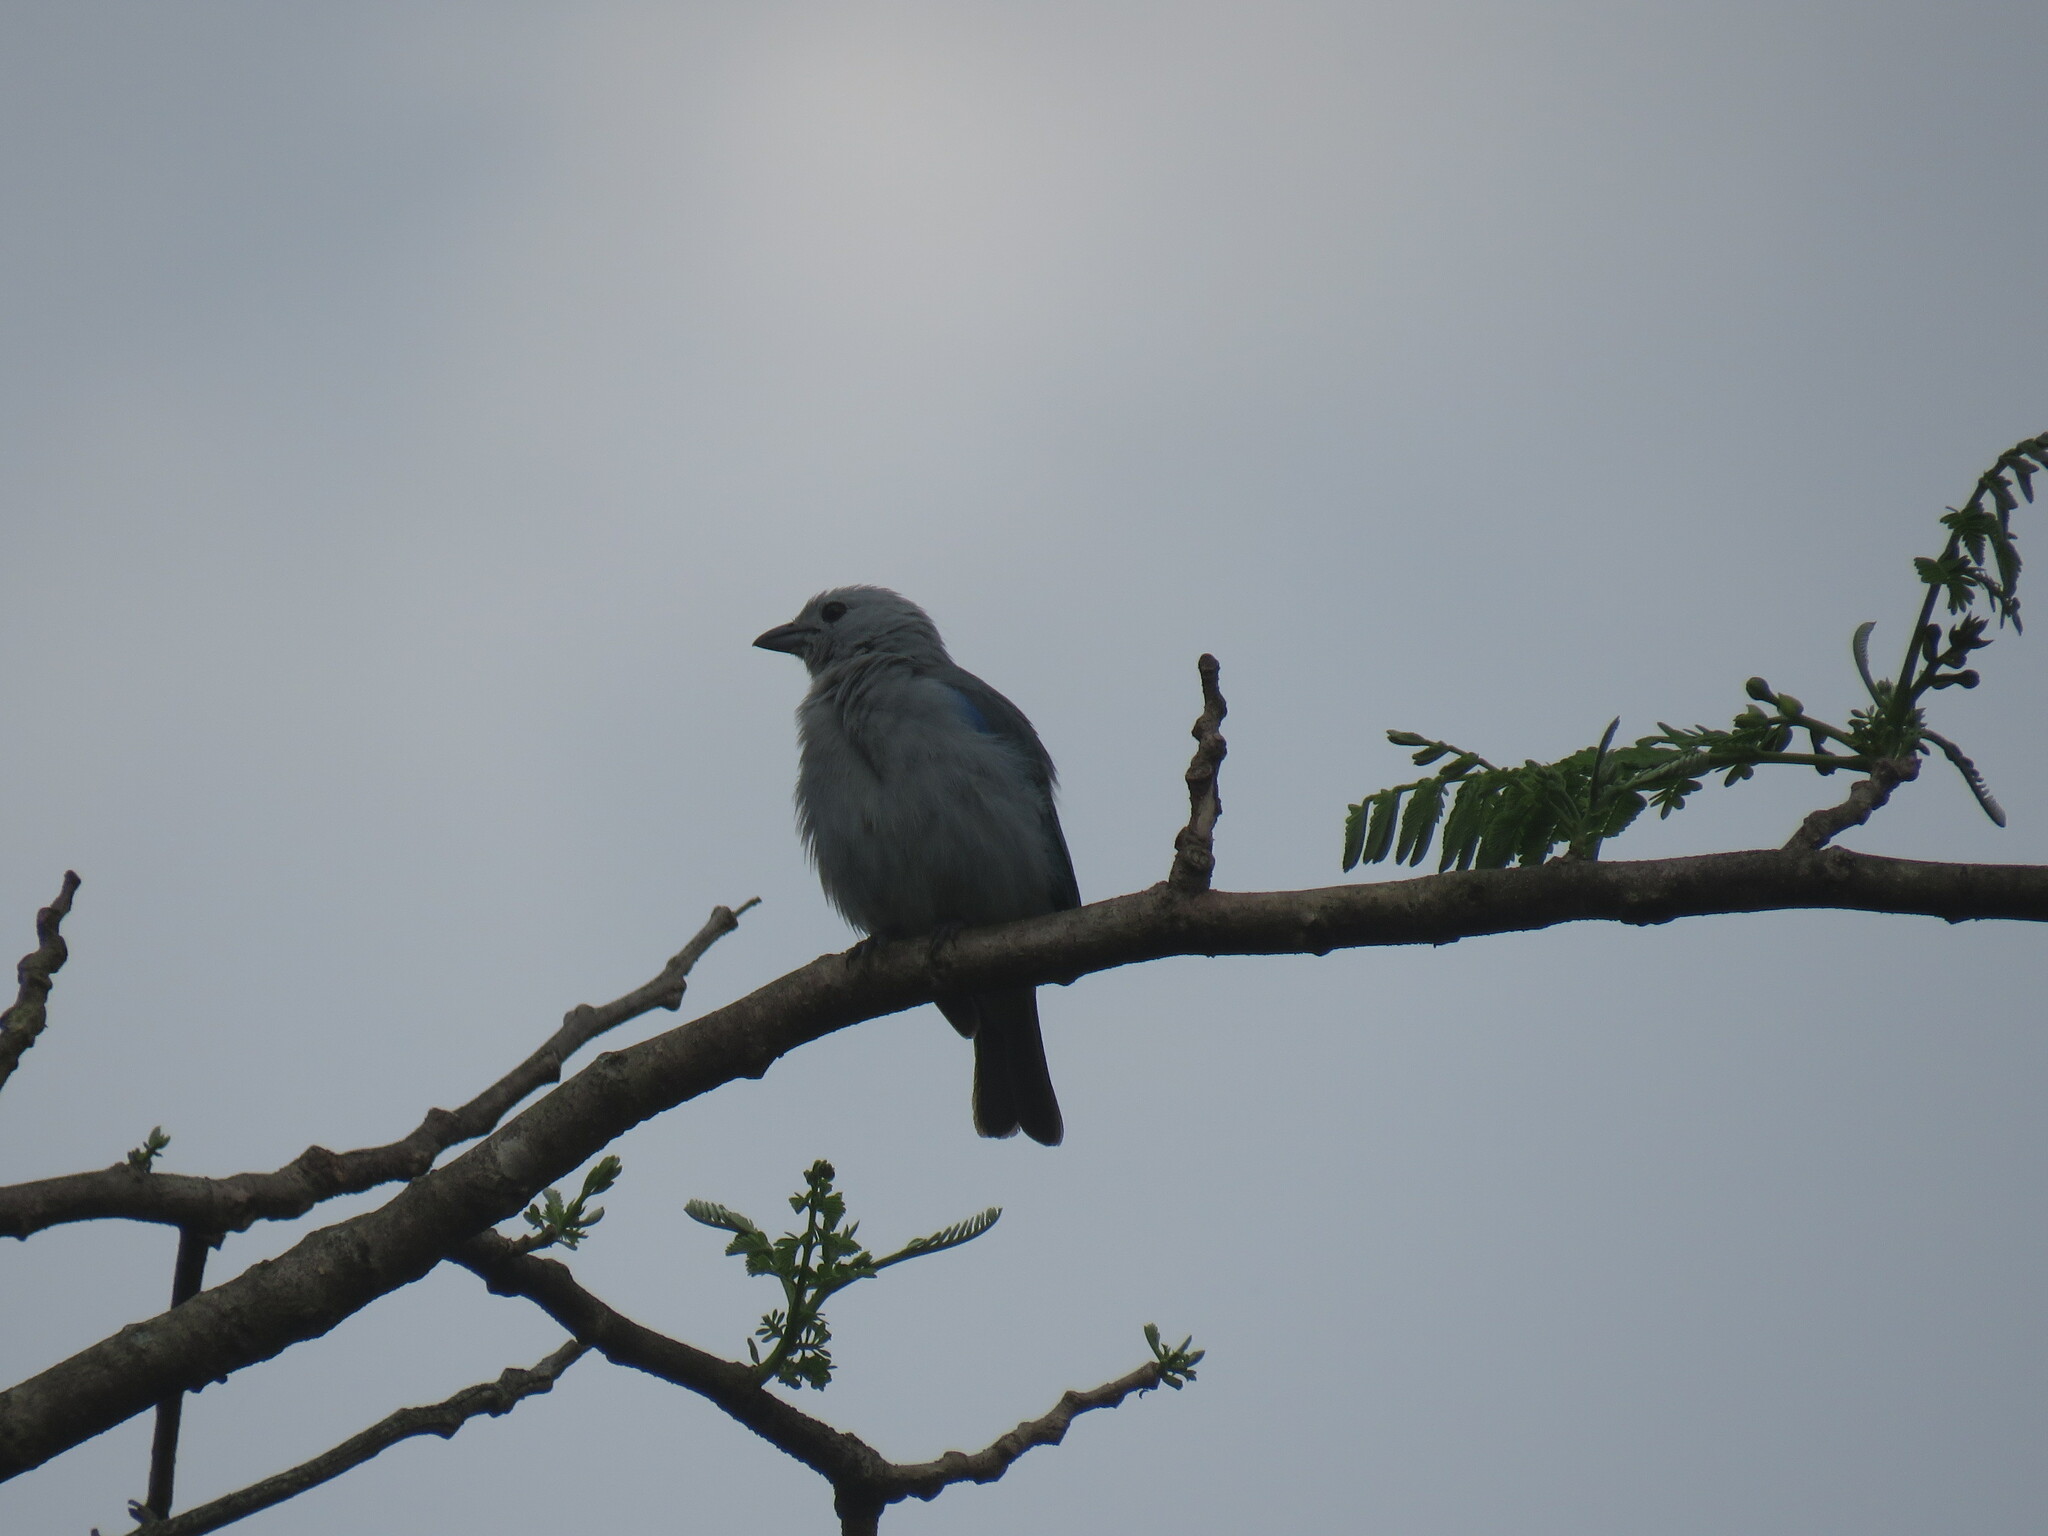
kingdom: Animalia
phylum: Chordata
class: Aves
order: Passeriformes
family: Thraupidae
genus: Thraupis
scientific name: Thraupis episcopus
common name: Blue-grey tanager
